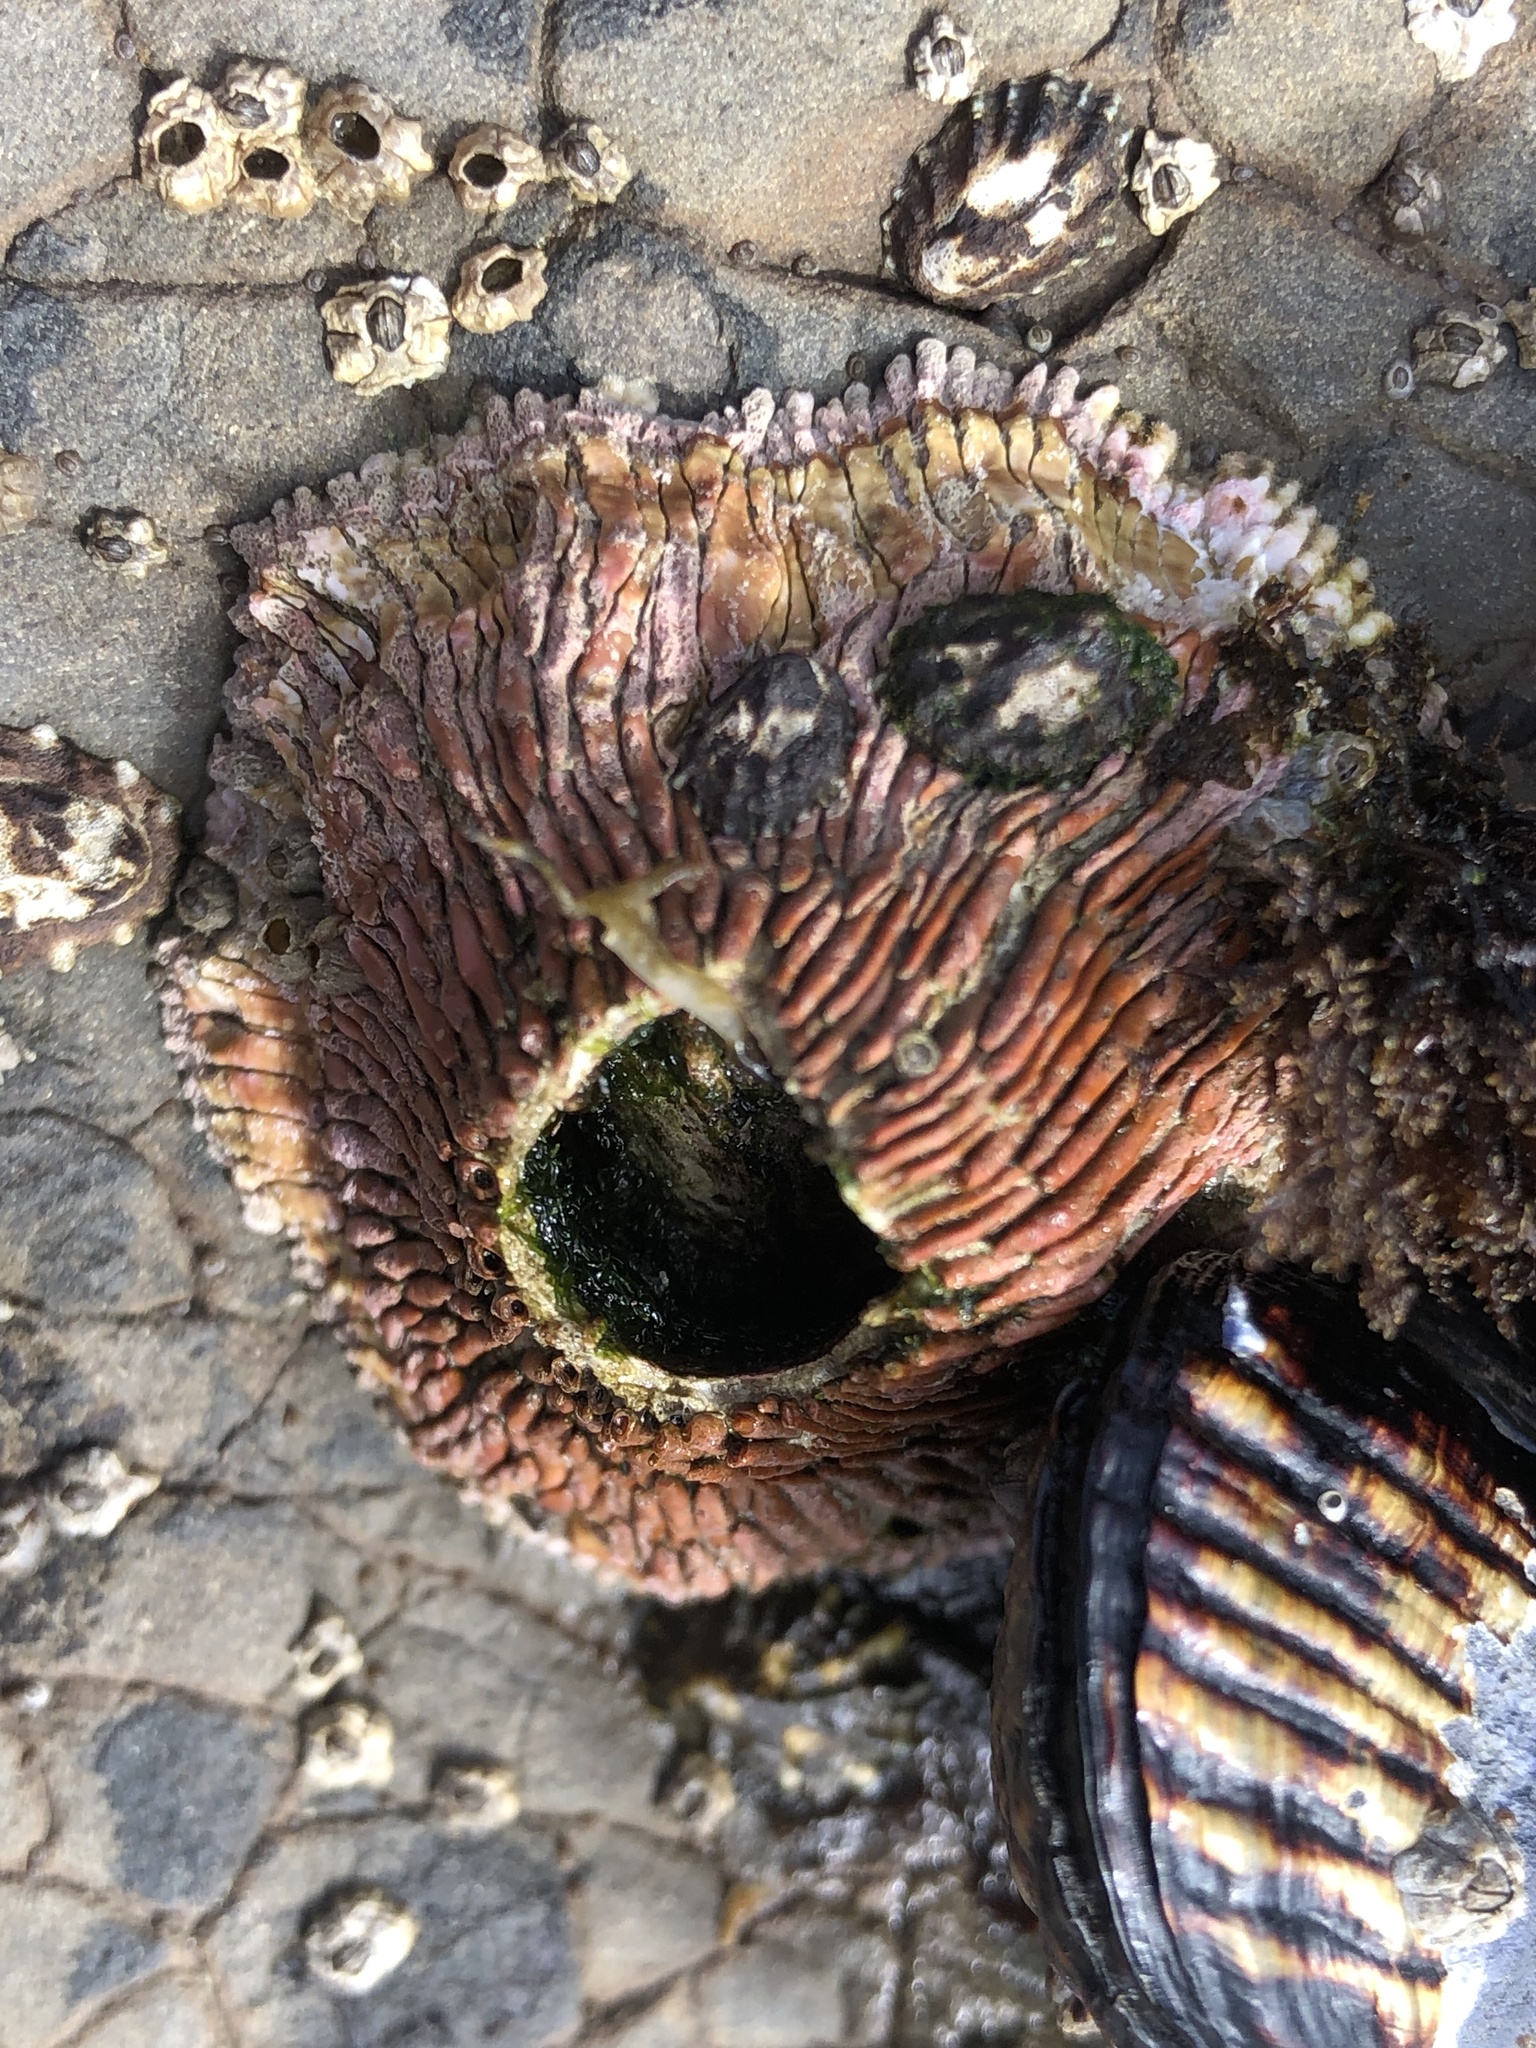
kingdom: Animalia
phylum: Arthropoda
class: Maxillopoda
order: Sessilia
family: Tetraclitidae
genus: Tetraclita
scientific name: Tetraclita rubescens
